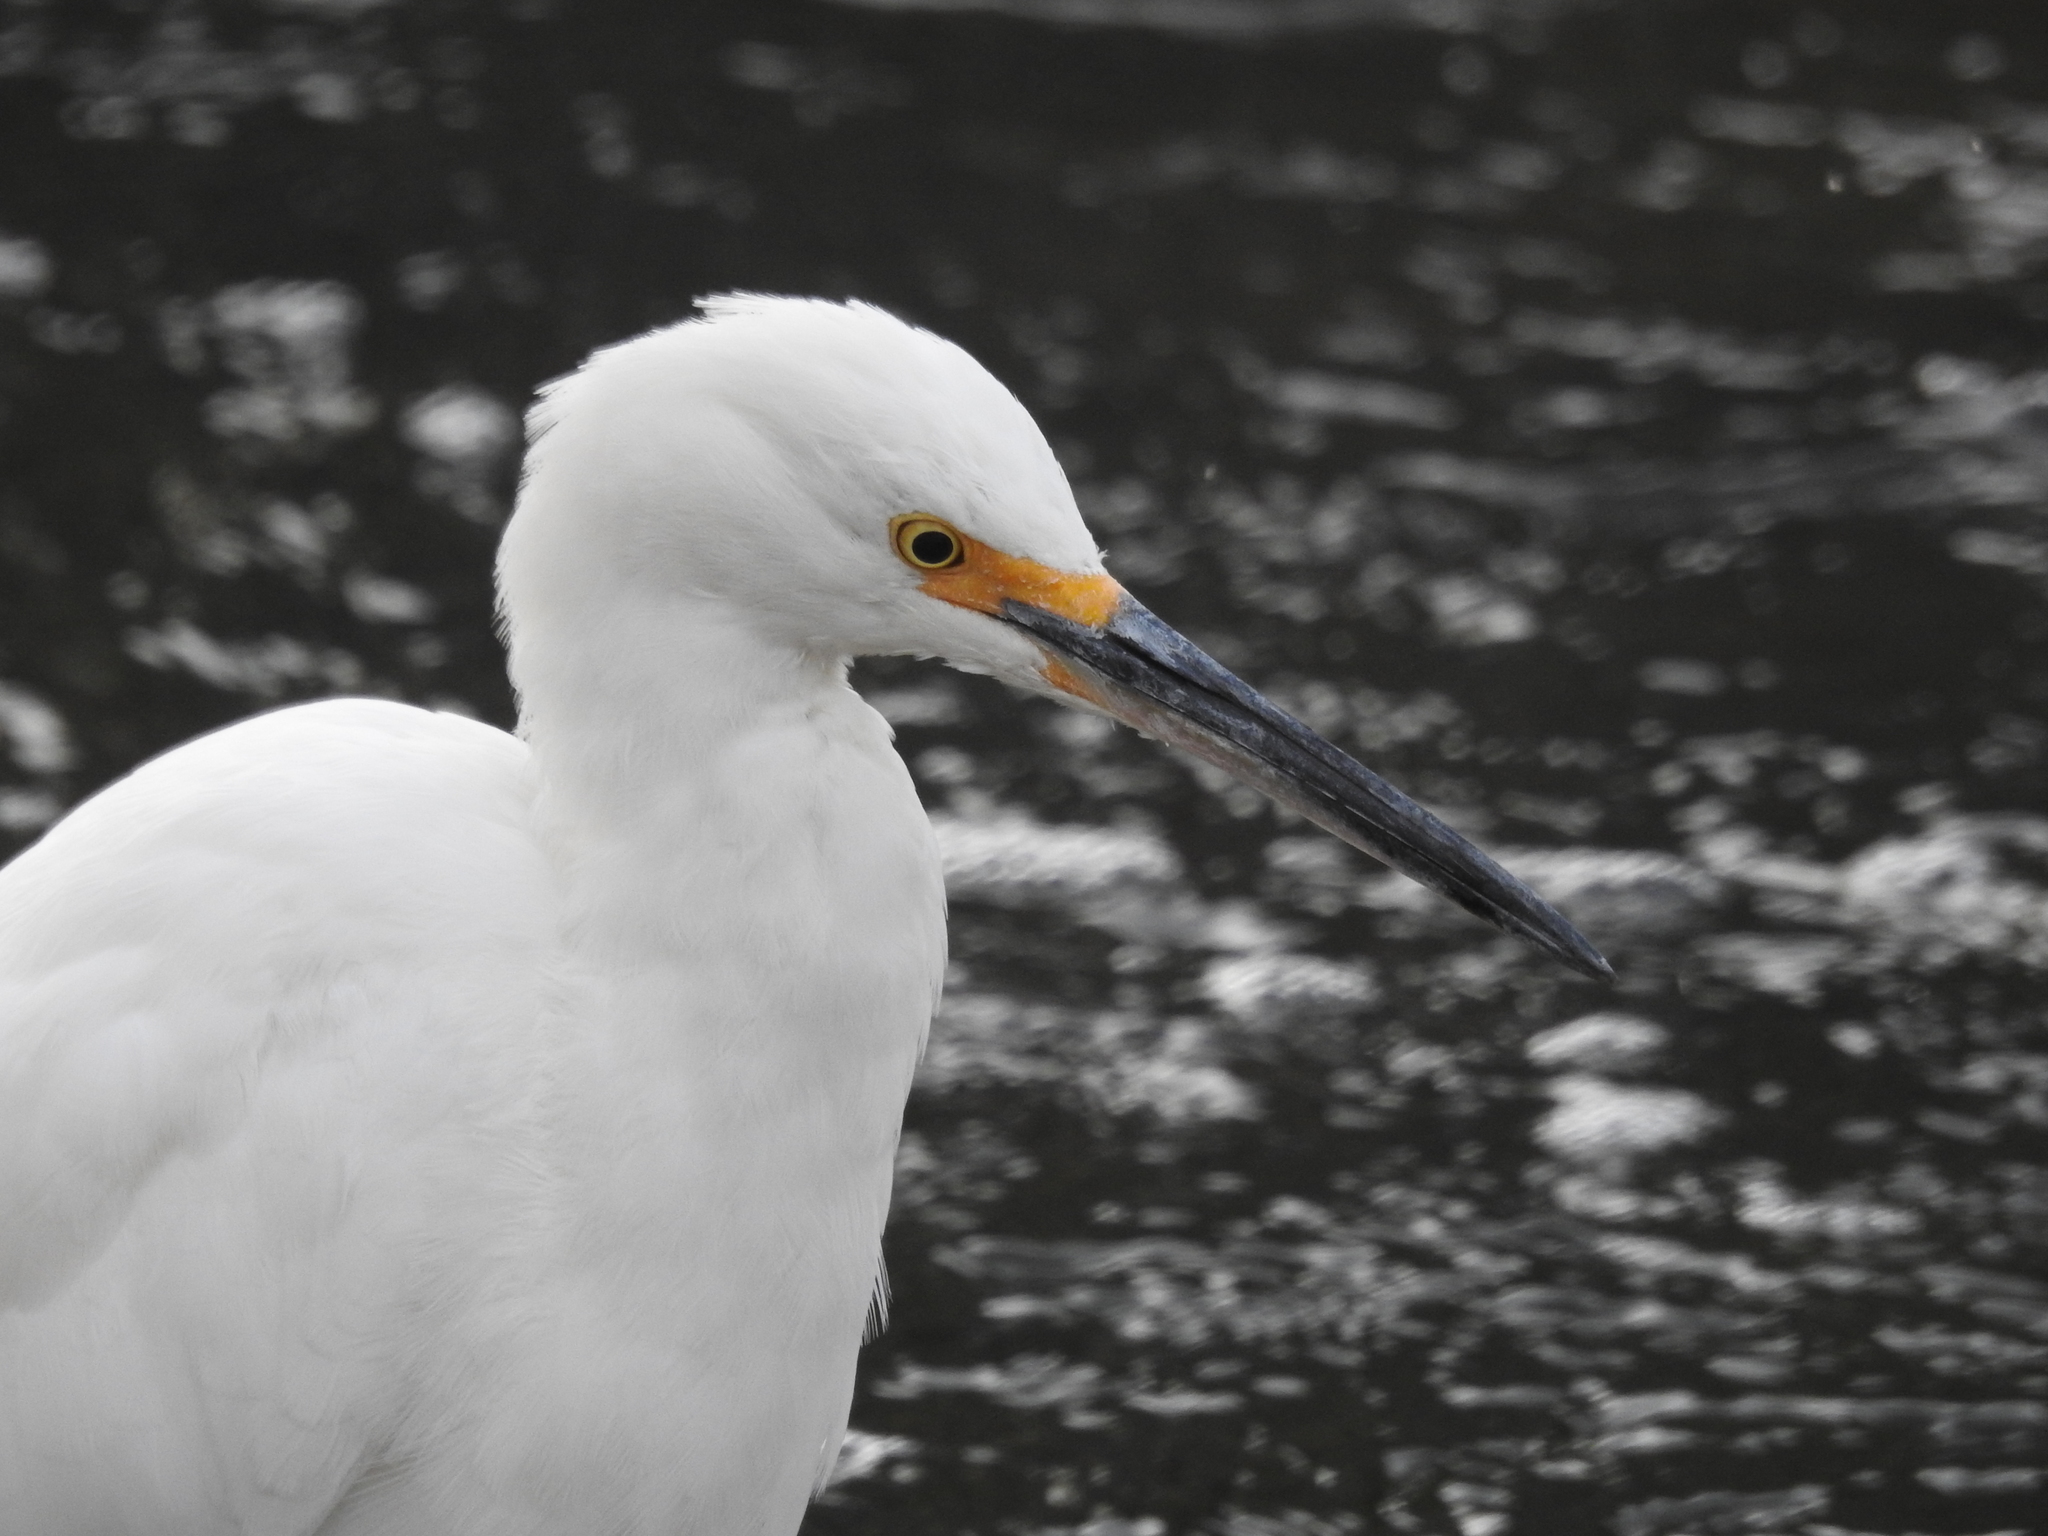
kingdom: Animalia
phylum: Chordata
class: Aves
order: Pelecaniformes
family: Ardeidae
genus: Egretta
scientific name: Egretta thula
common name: Snowy egret
